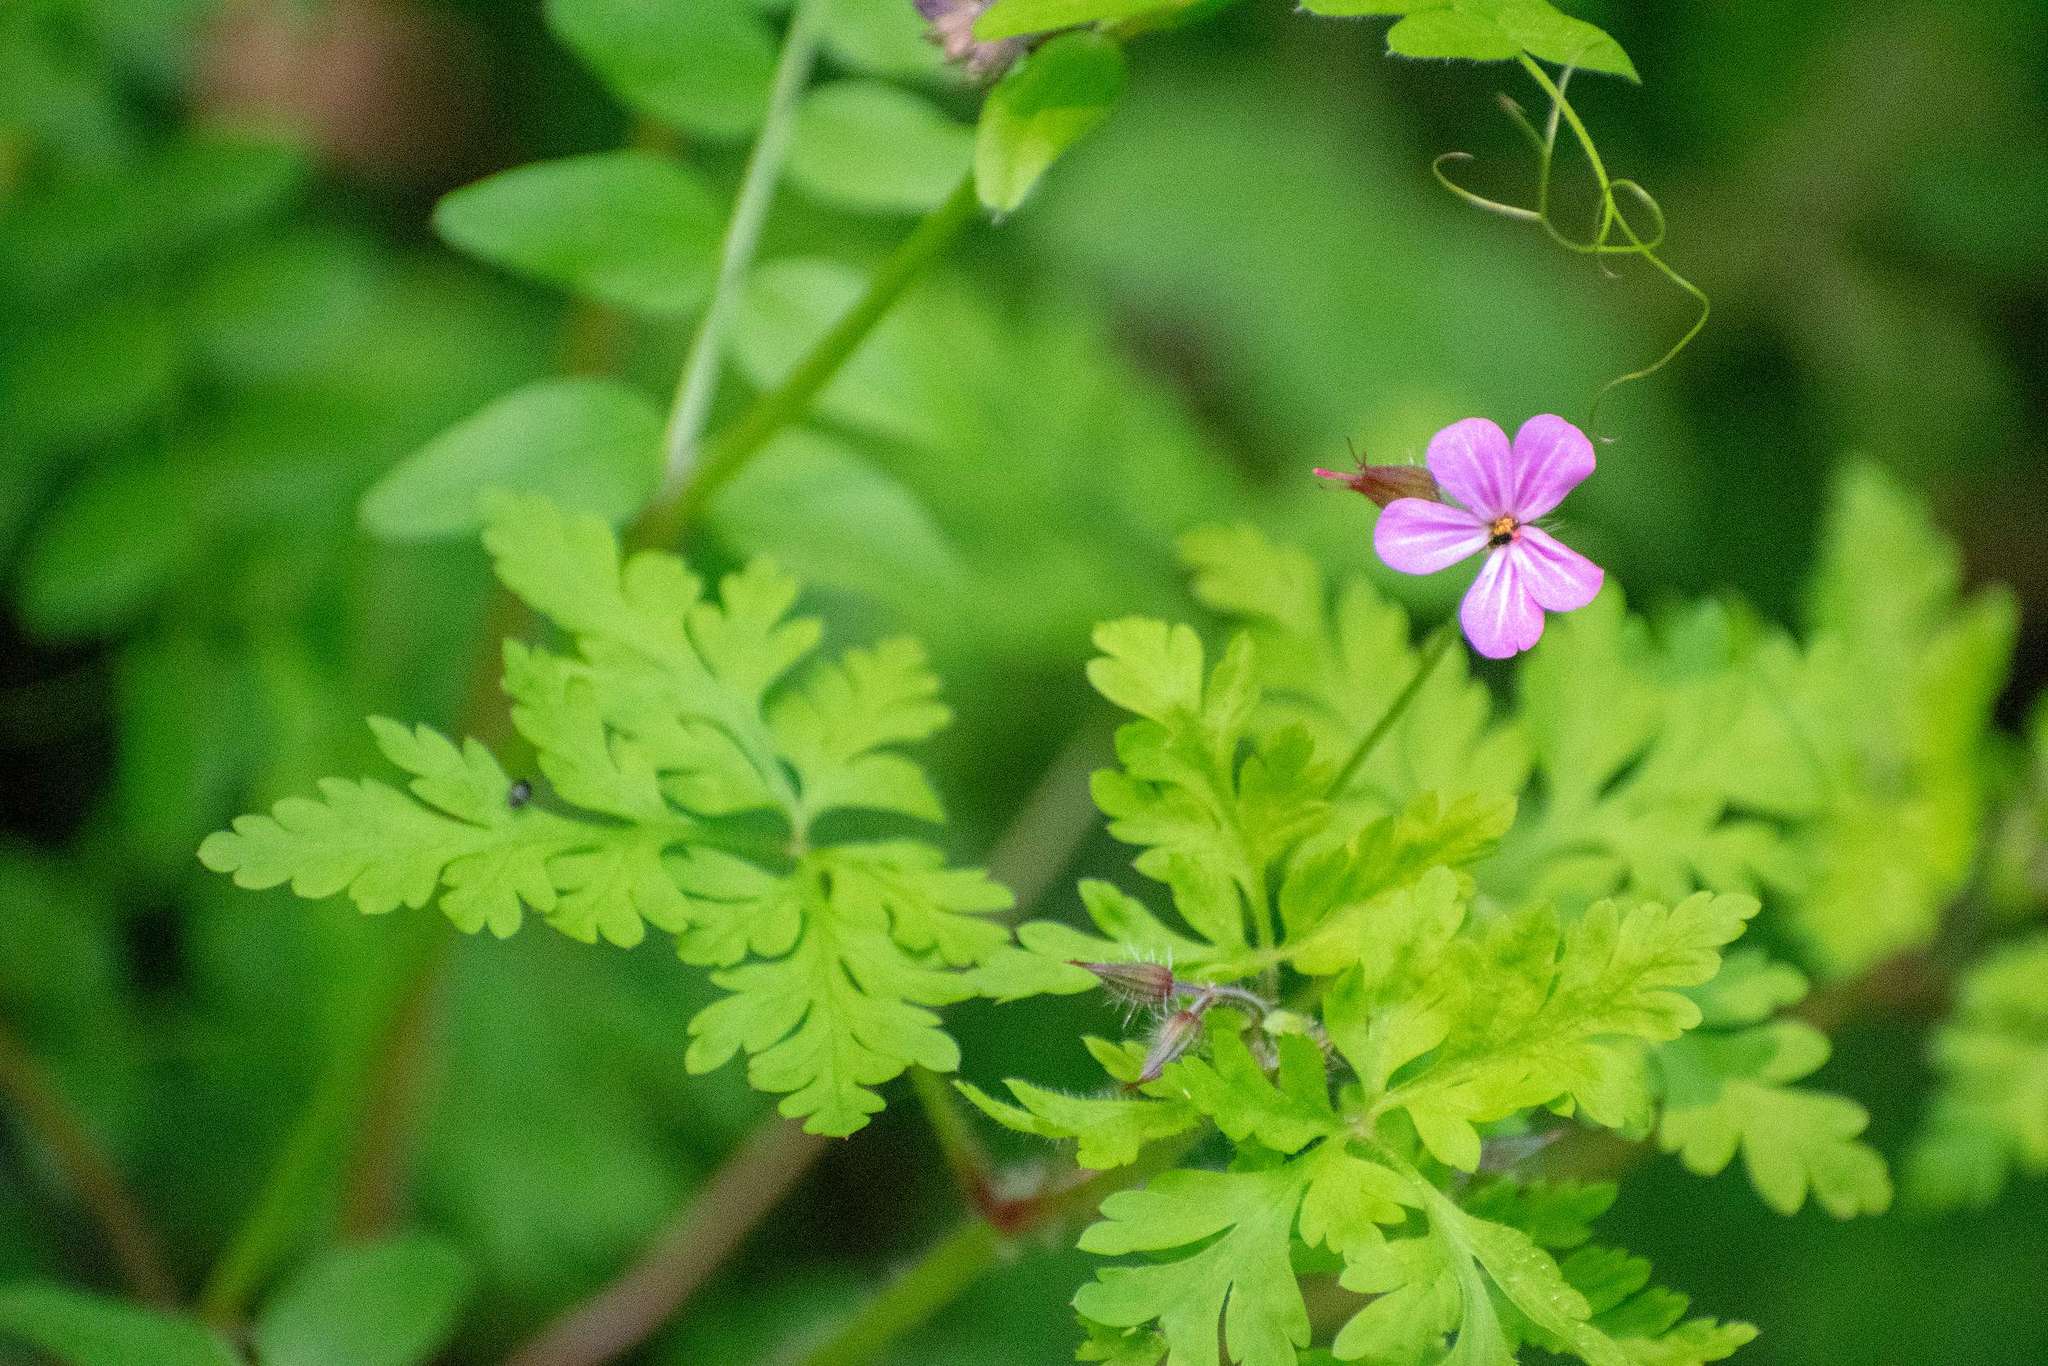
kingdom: Plantae
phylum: Tracheophyta
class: Magnoliopsida
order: Geraniales
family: Geraniaceae
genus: Geranium
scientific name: Geranium robertianum
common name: Herb-robert
